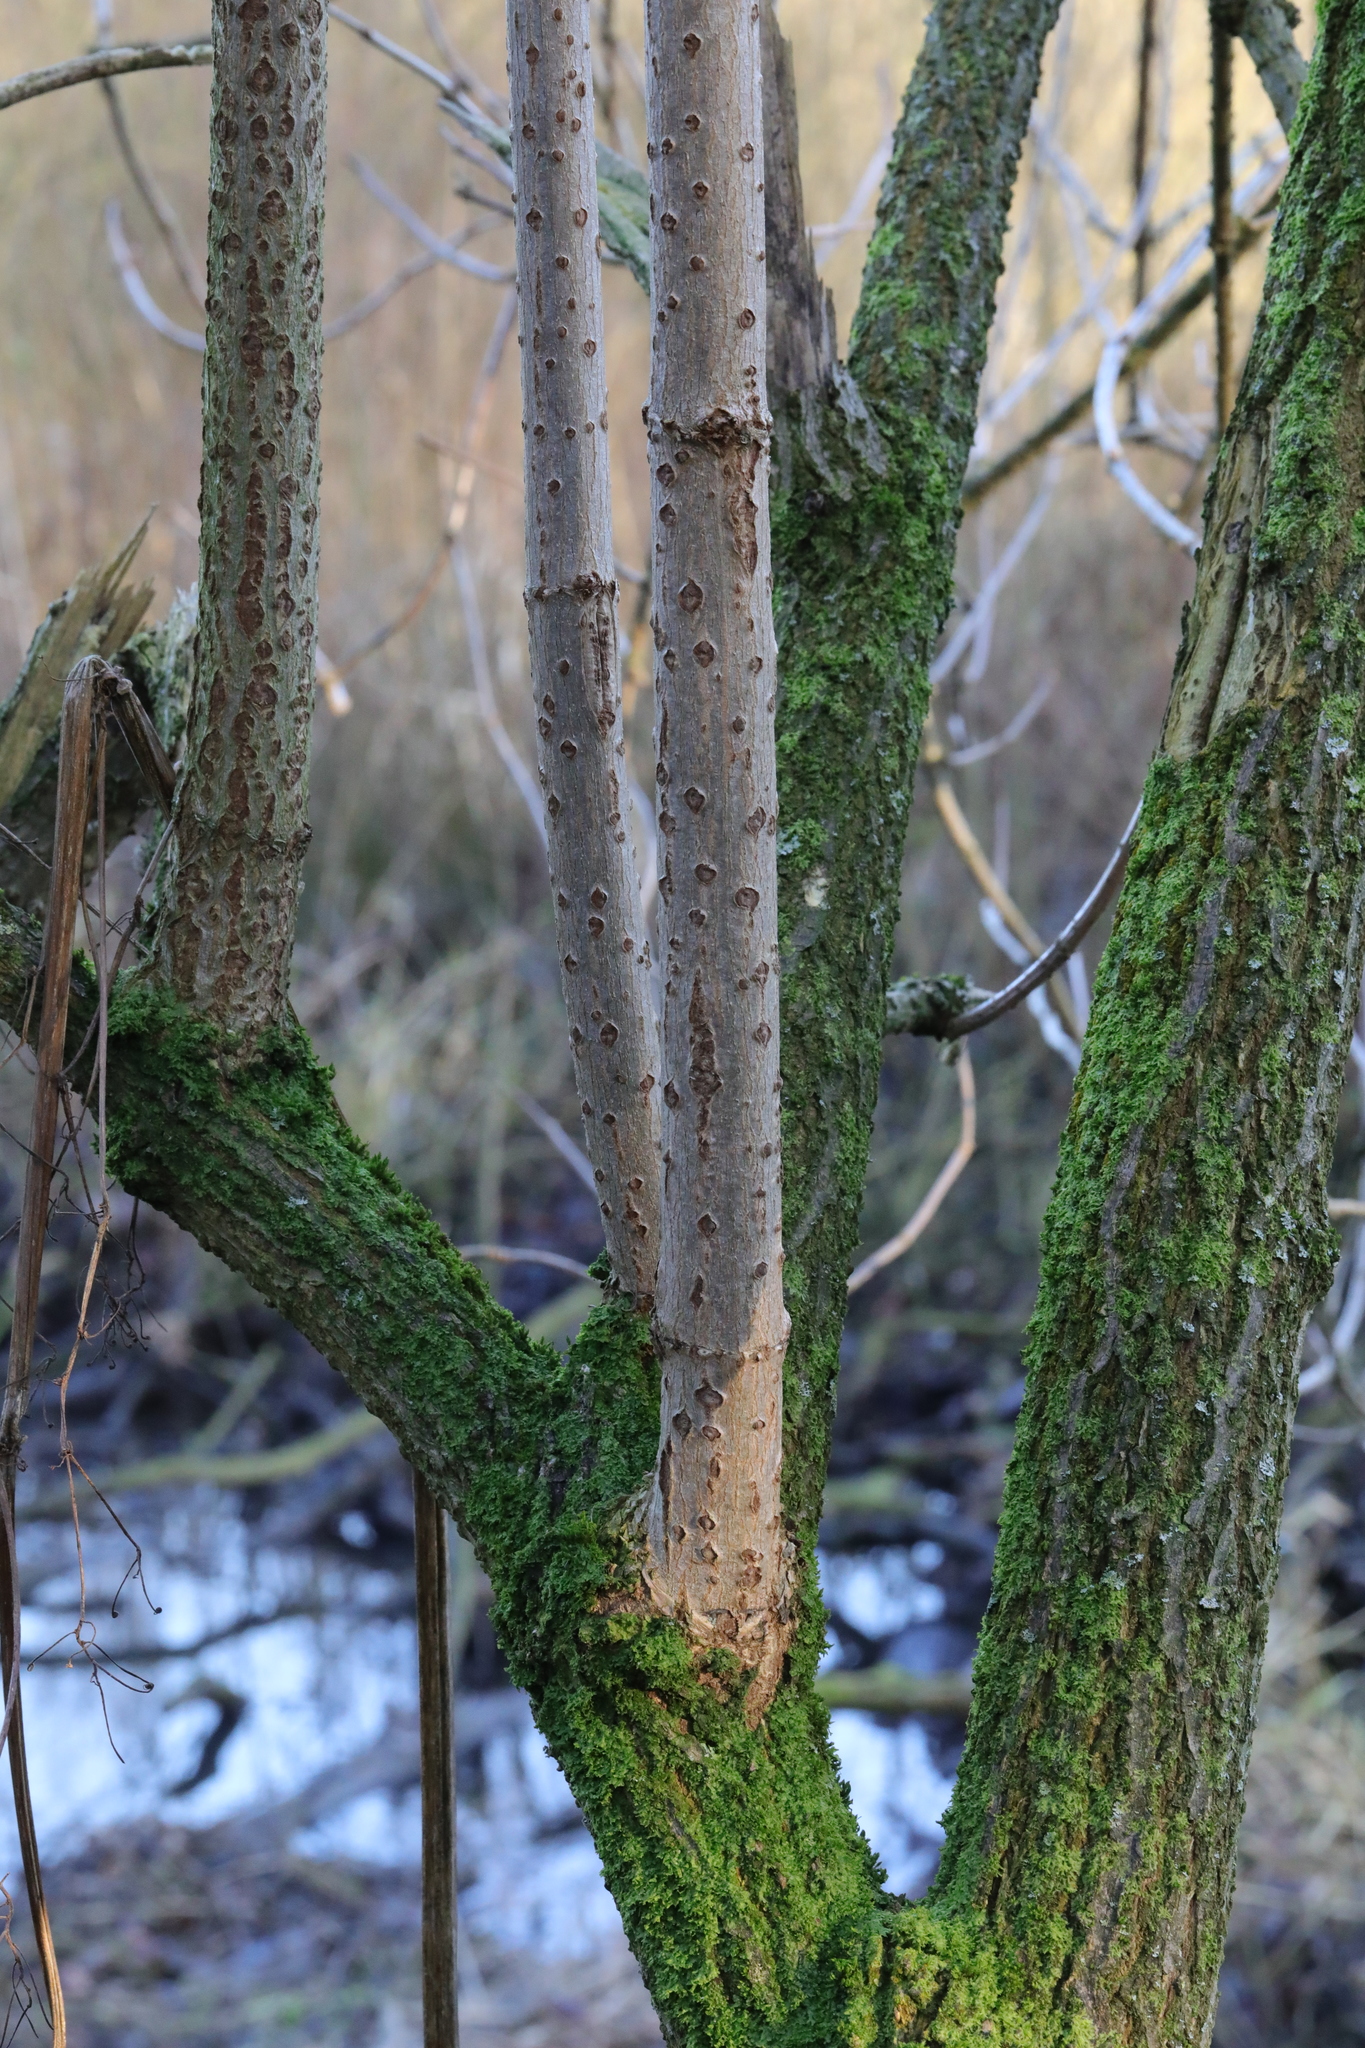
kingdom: Plantae
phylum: Tracheophyta
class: Magnoliopsida
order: Dipsacales
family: Viburnaceae
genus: Sambucus
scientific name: Sambucus nigra
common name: Elder
